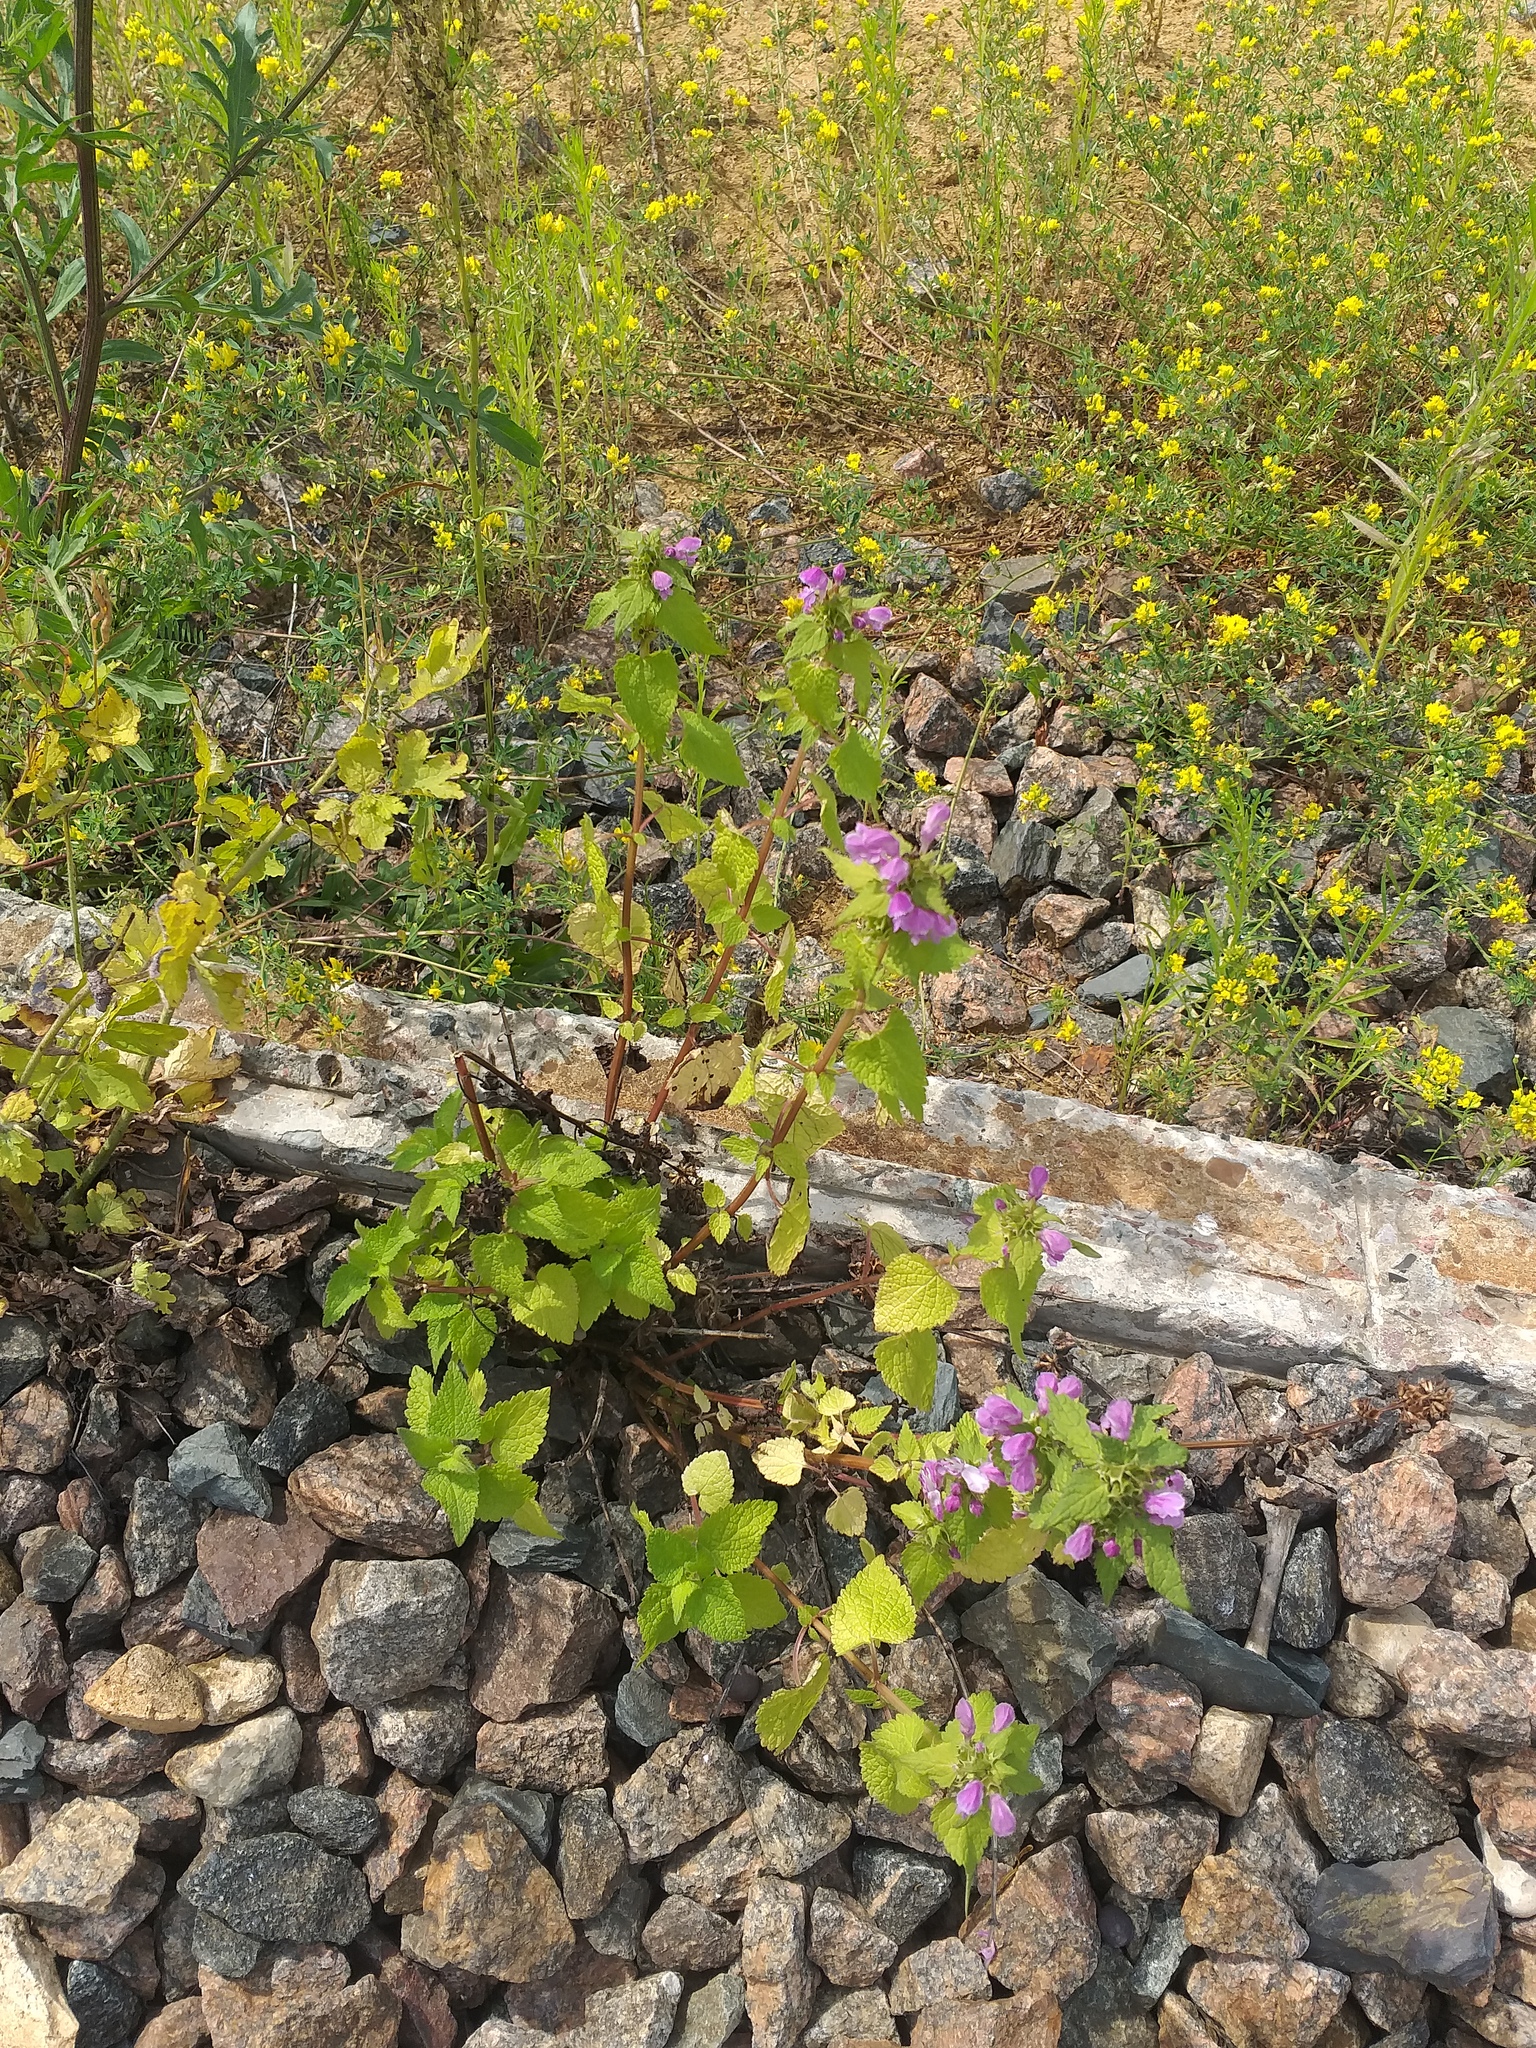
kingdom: Plantae
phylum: Tracheophyta
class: Magnoliopsida
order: Lamiales
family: Lamiaceae
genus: Lamium
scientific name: Lamium maculatum
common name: Spotted dead-nettle
